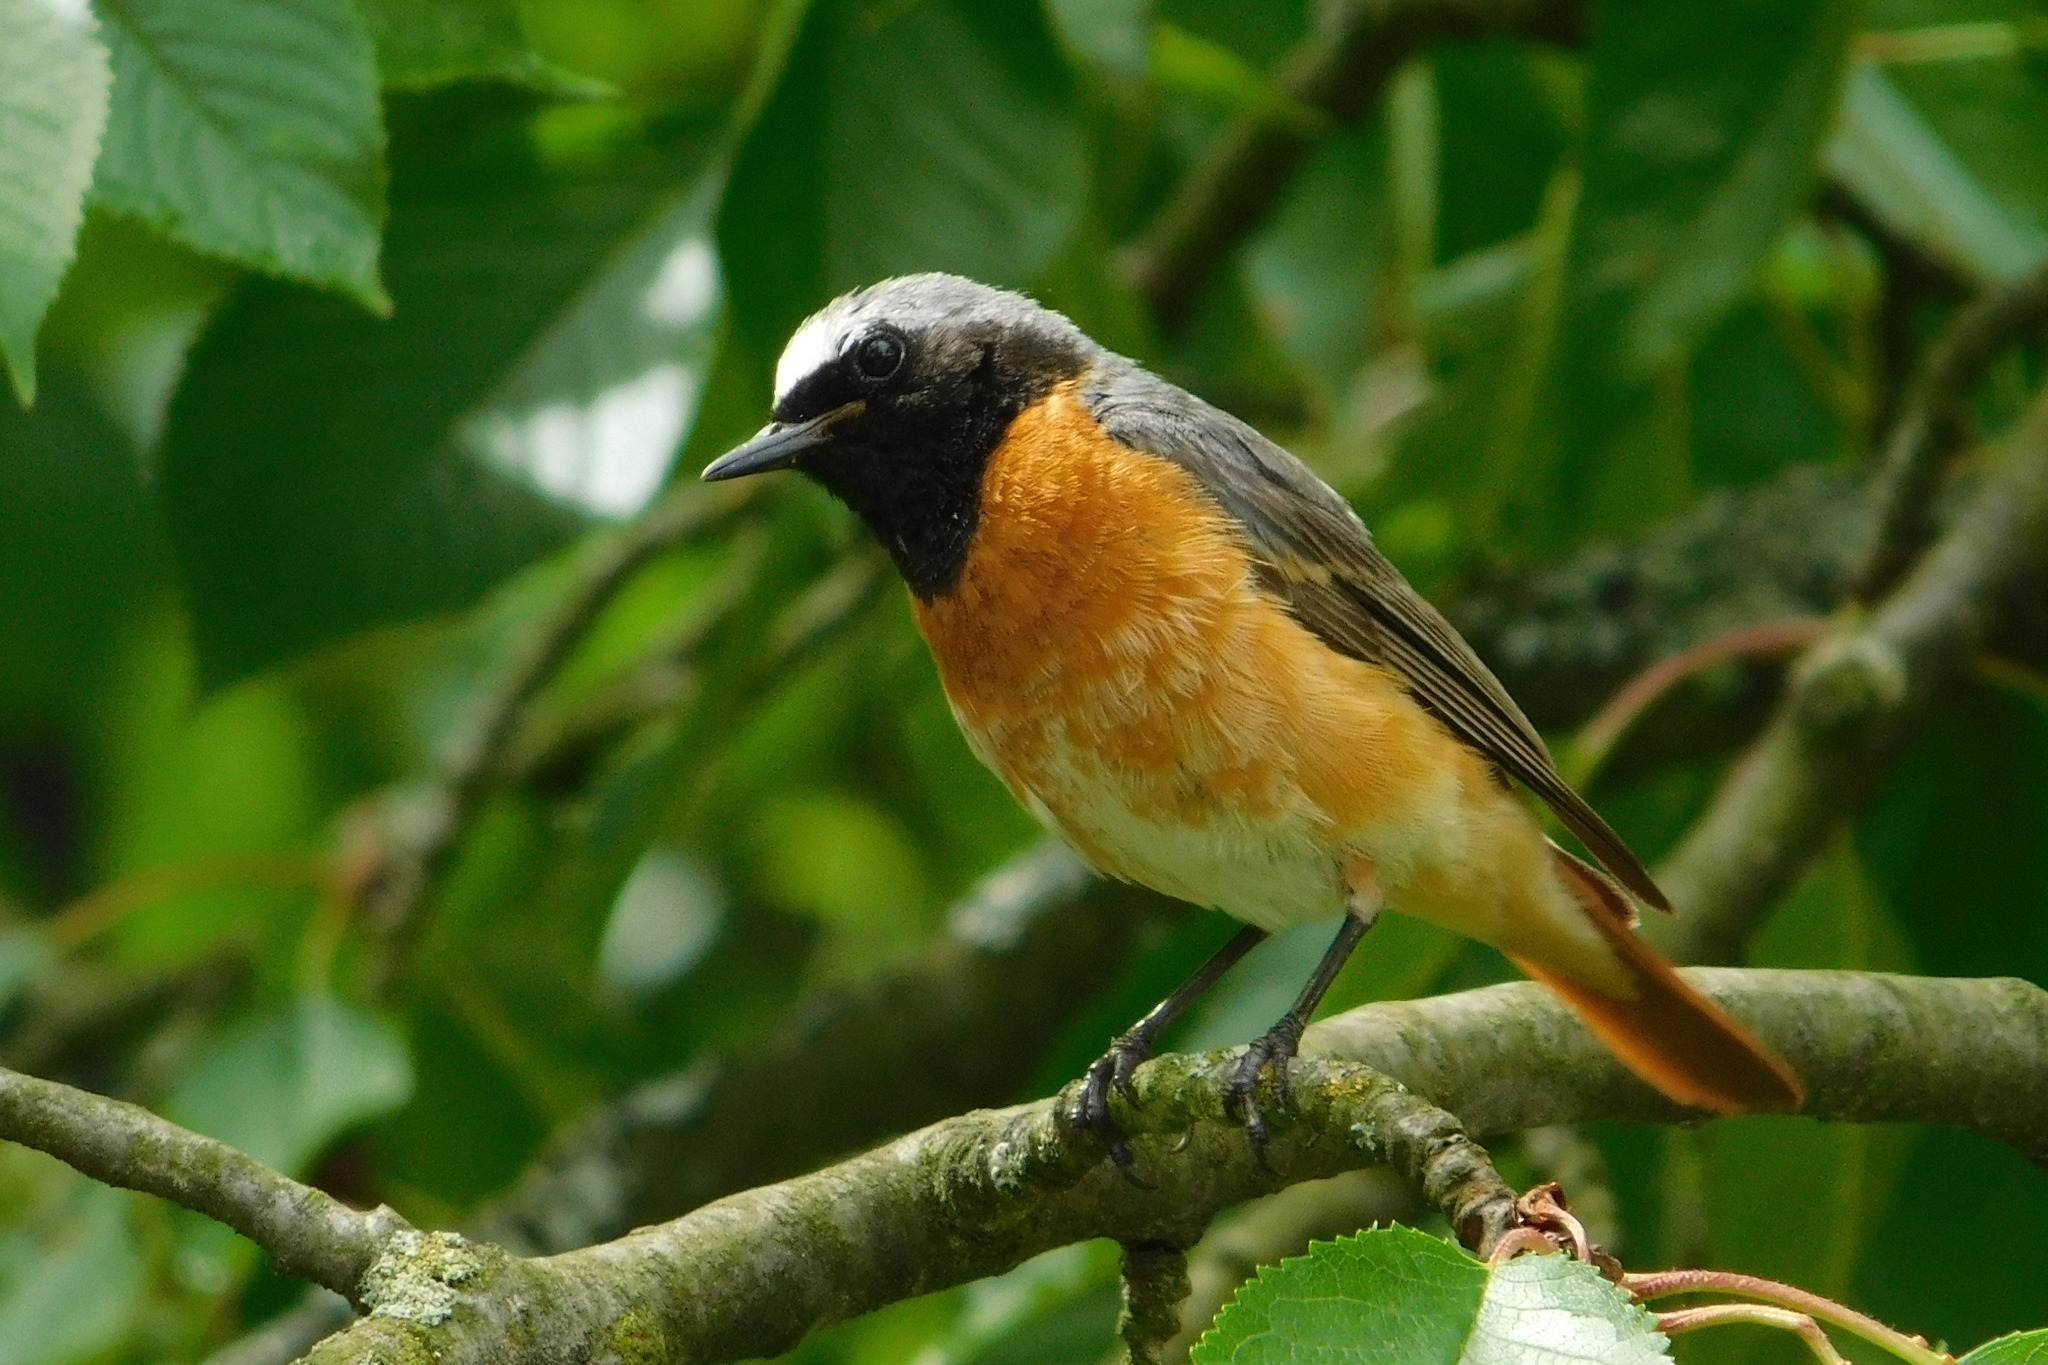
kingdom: Animalia
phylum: Chordata
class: Aves
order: Passeriformes
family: Muscicapidae
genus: Phoenicurus
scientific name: Phoenicurus phoenicurus
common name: Common redstart
